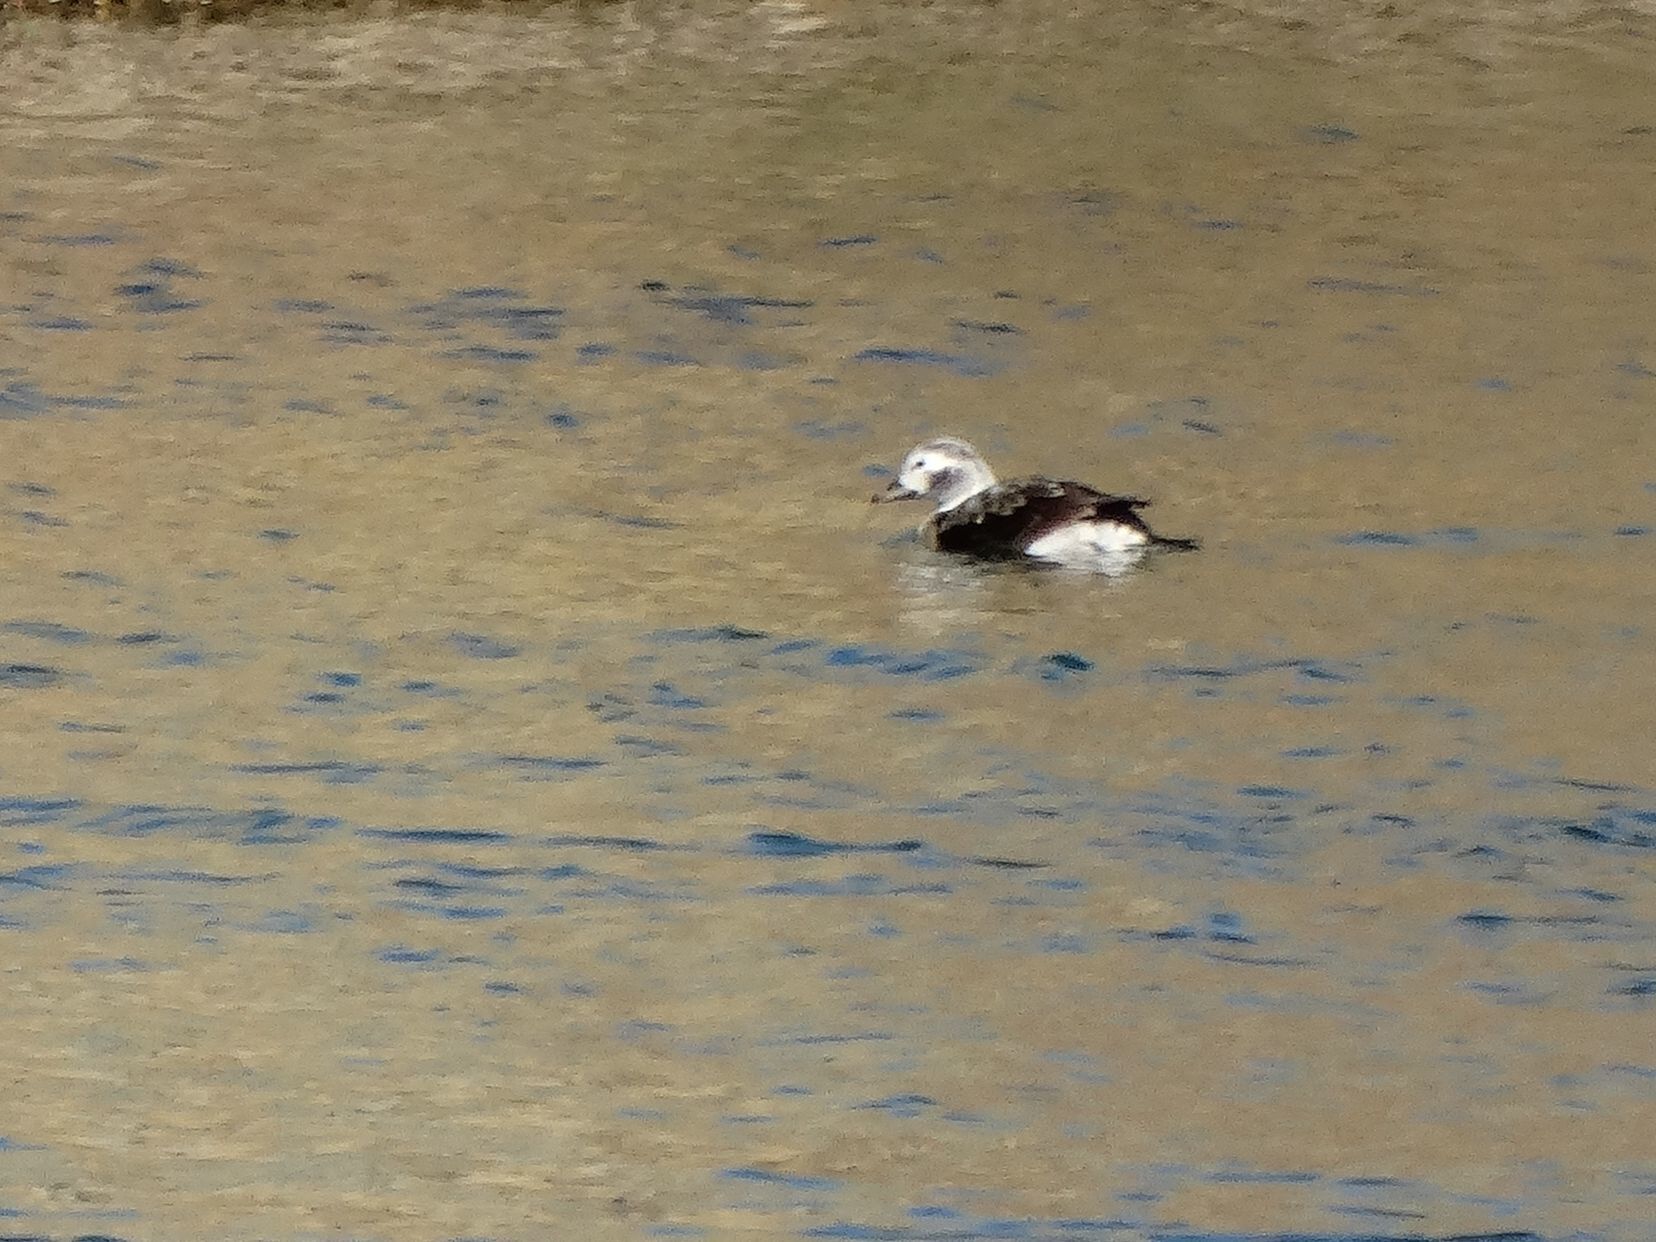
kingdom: Animalia
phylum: Chordata
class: Aves
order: Anseriformes
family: Anatidae
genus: Clangula
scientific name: Clangula hyemalis
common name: Long-tailed duck
